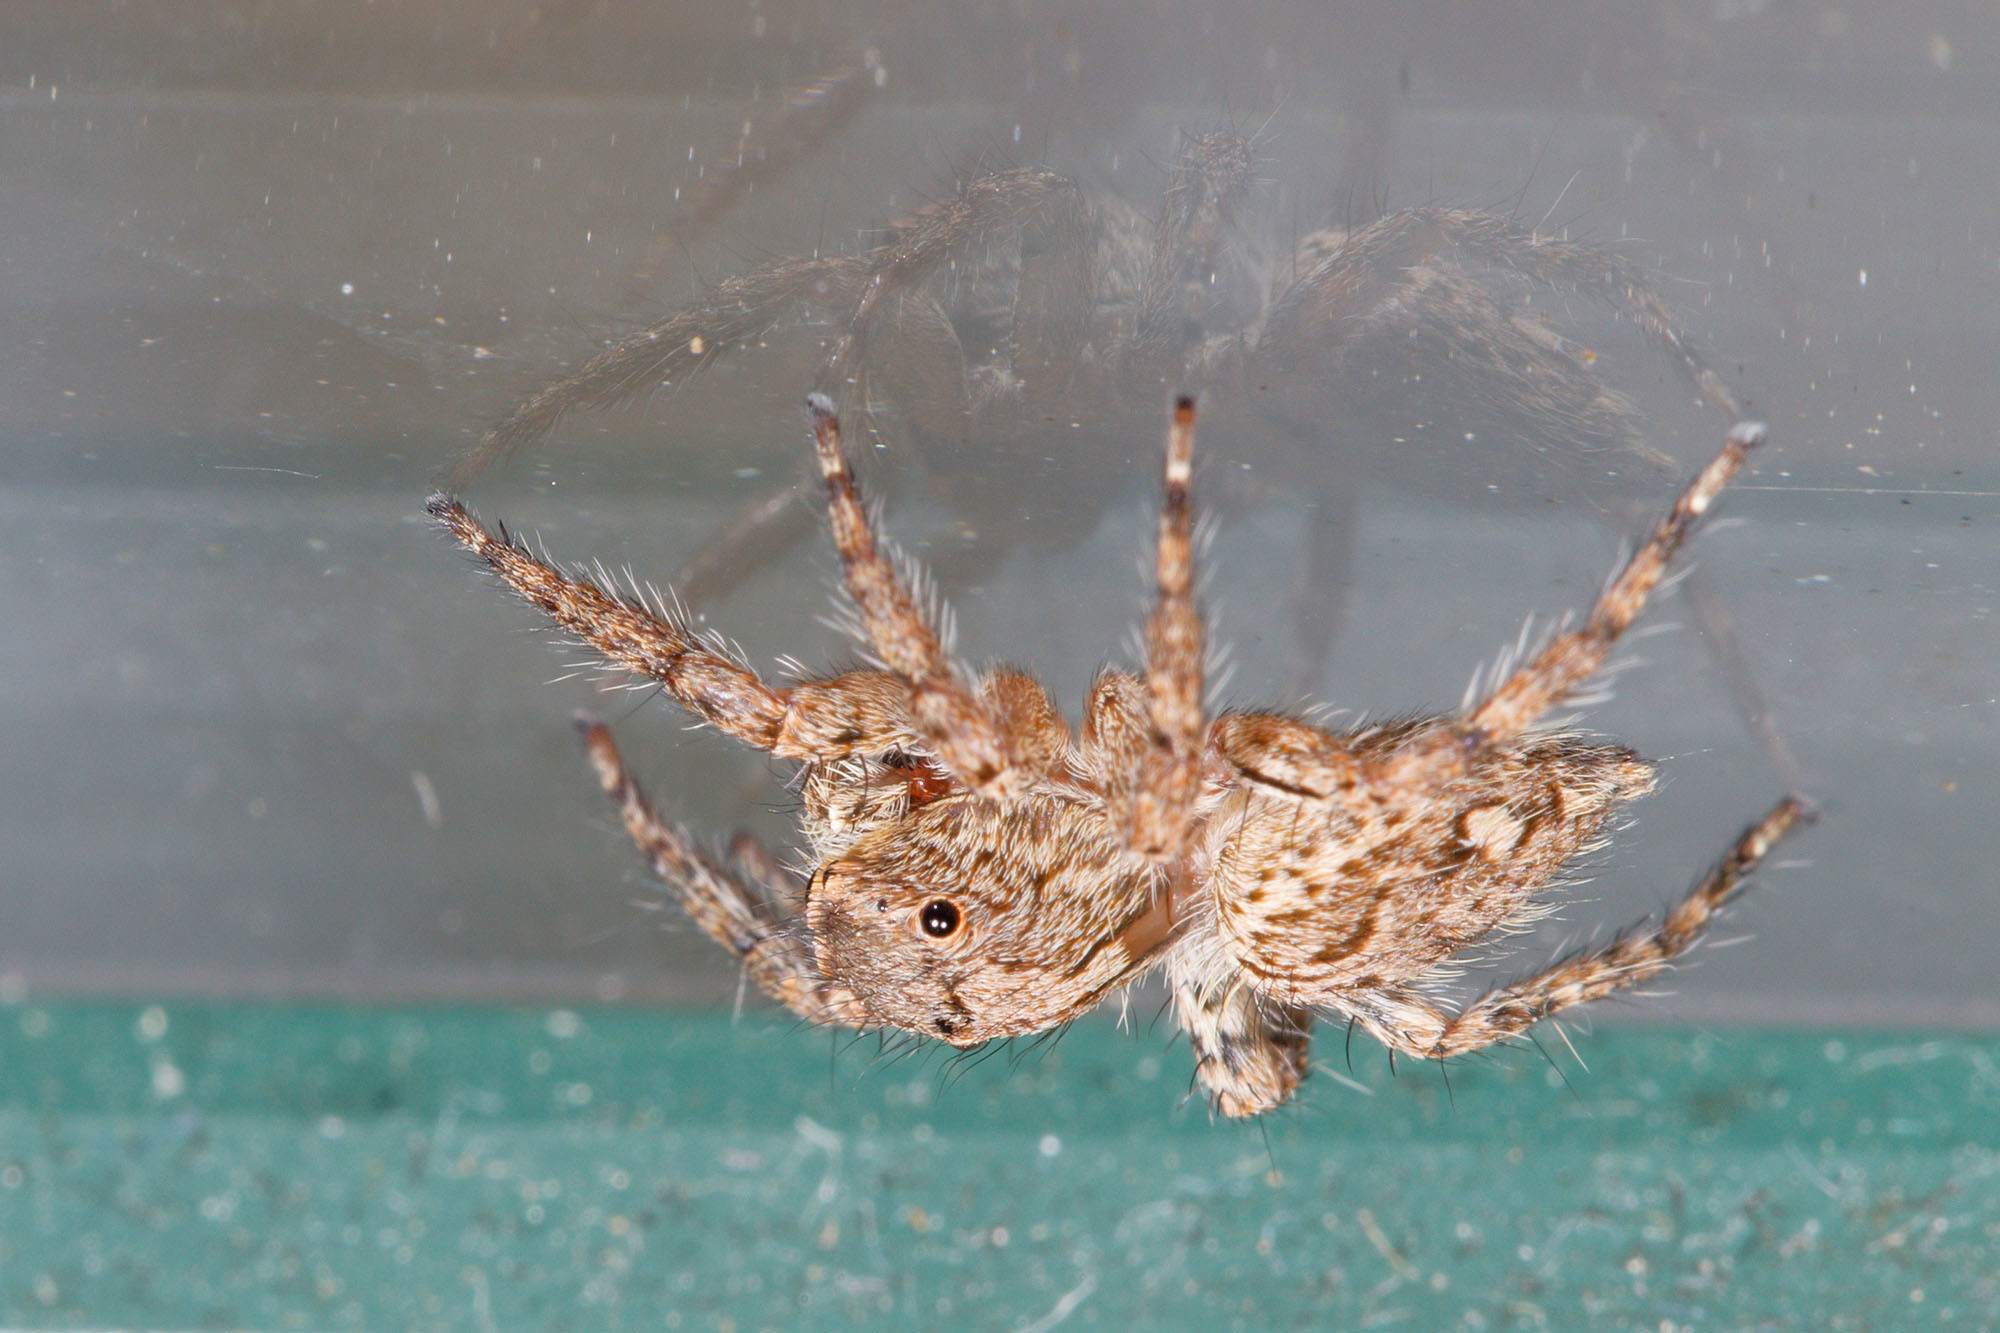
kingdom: Animalia
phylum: Arthropoda
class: Arachnida
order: Araneae
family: Salticidae
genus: Plexippus
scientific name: Plexippus petersi
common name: Jumping spider
